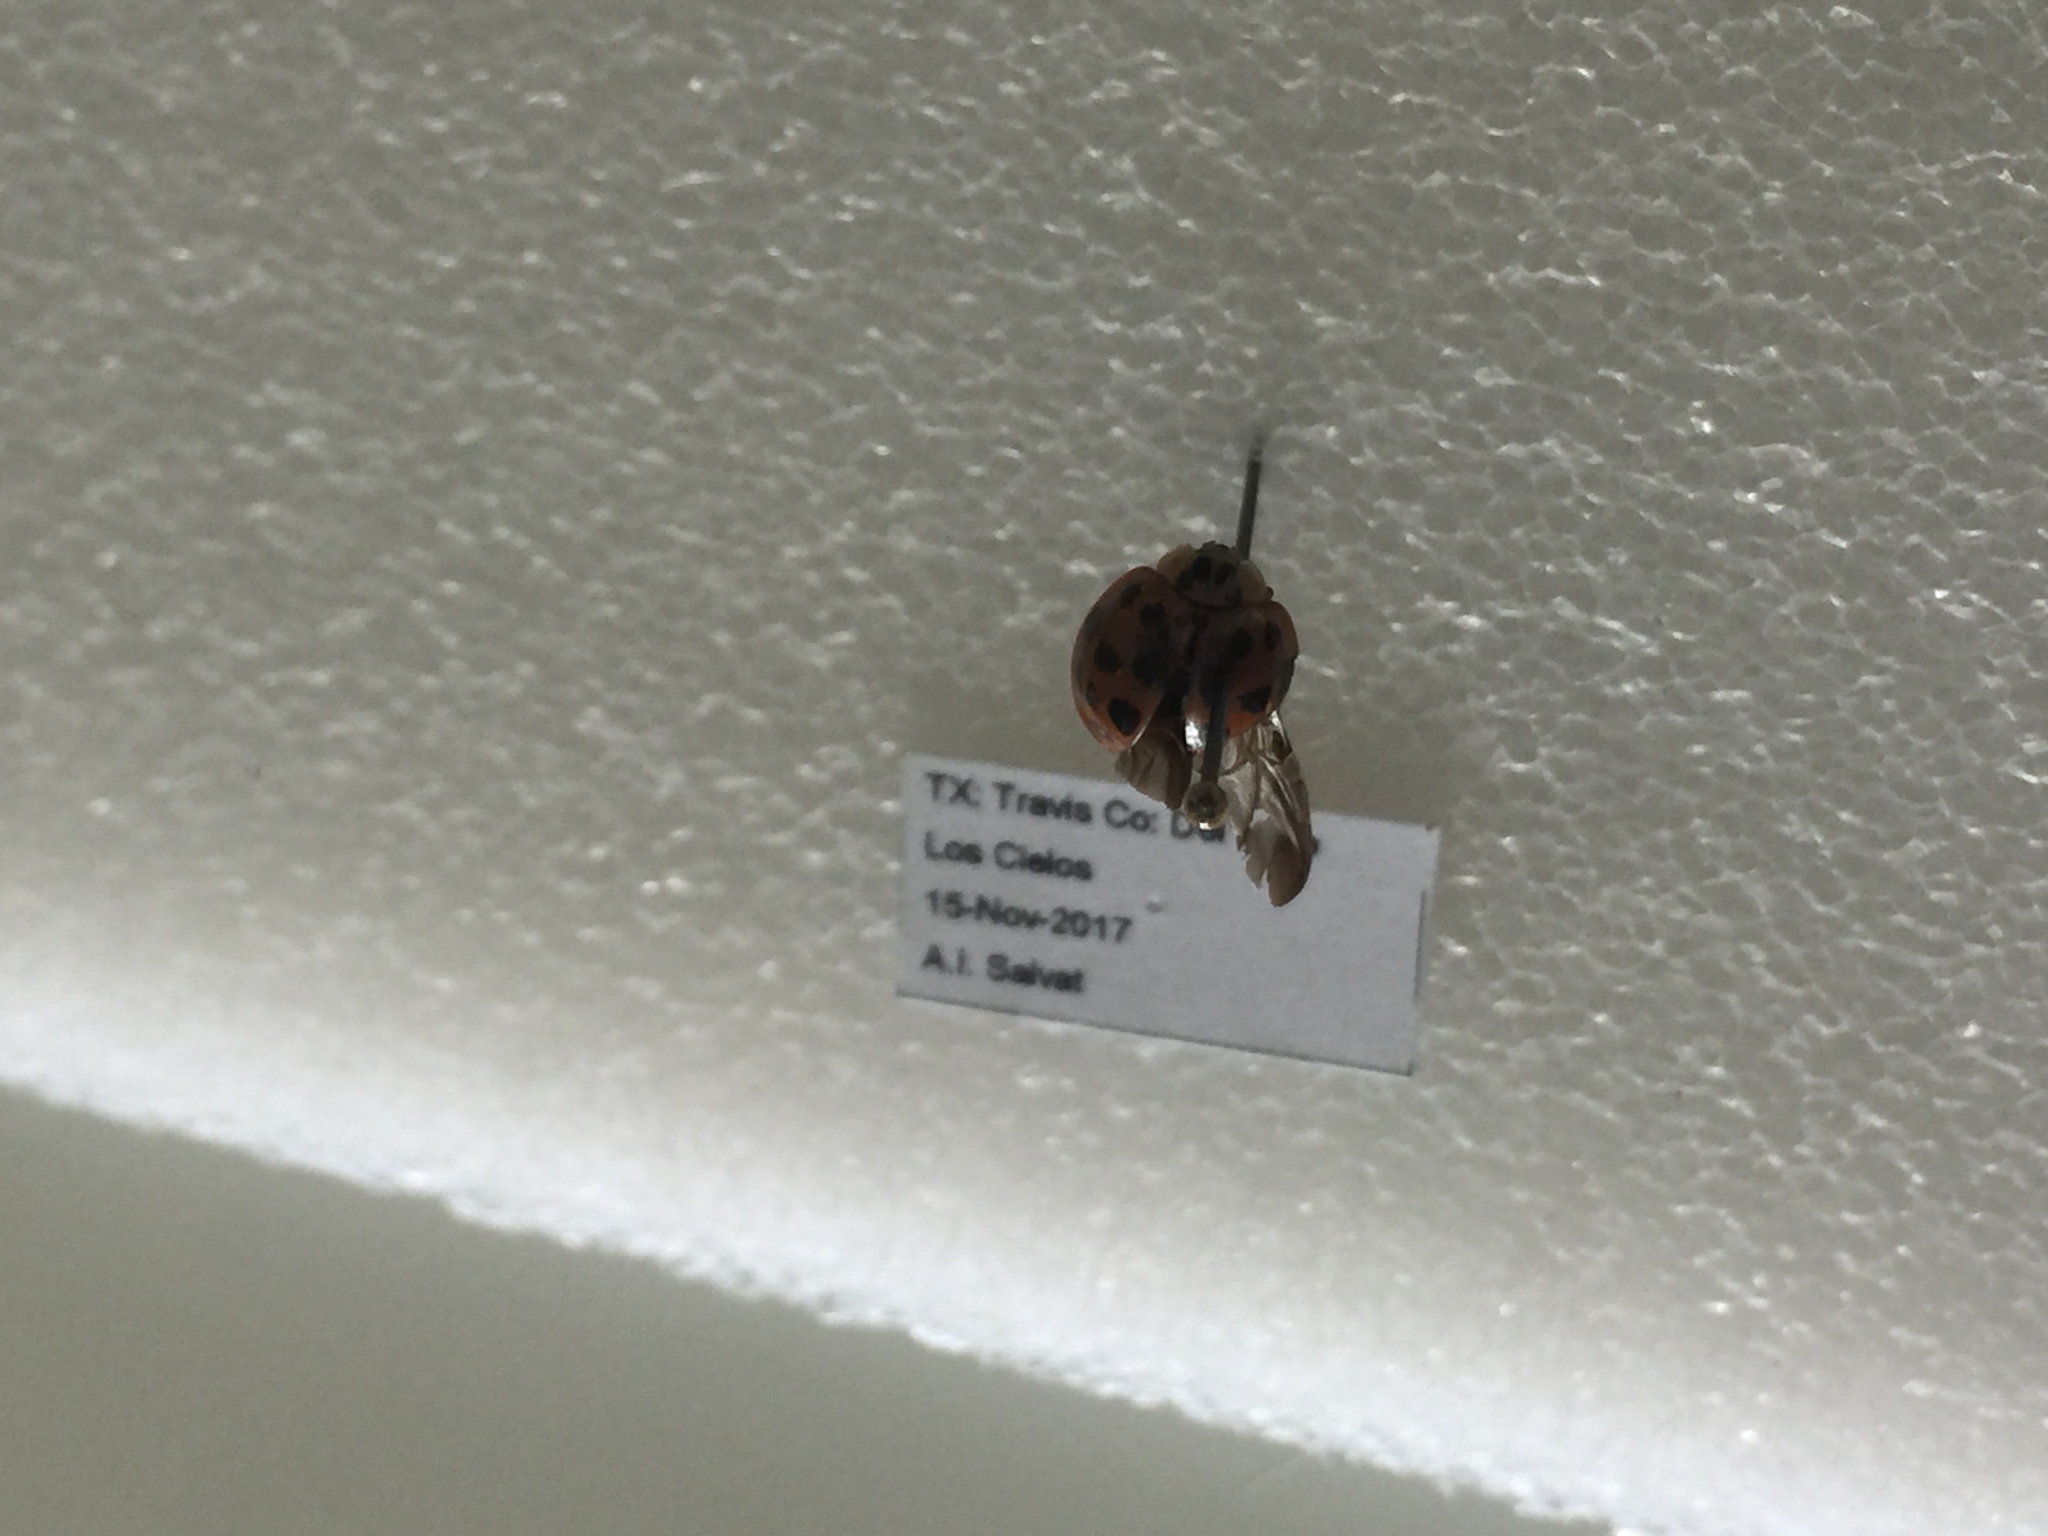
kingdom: Animalia
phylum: Arthropoda
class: Insecta
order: Coleoptera
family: Coccinellidae
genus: Harmonia
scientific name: Harmonia axyridis
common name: Harlequin ladybird
